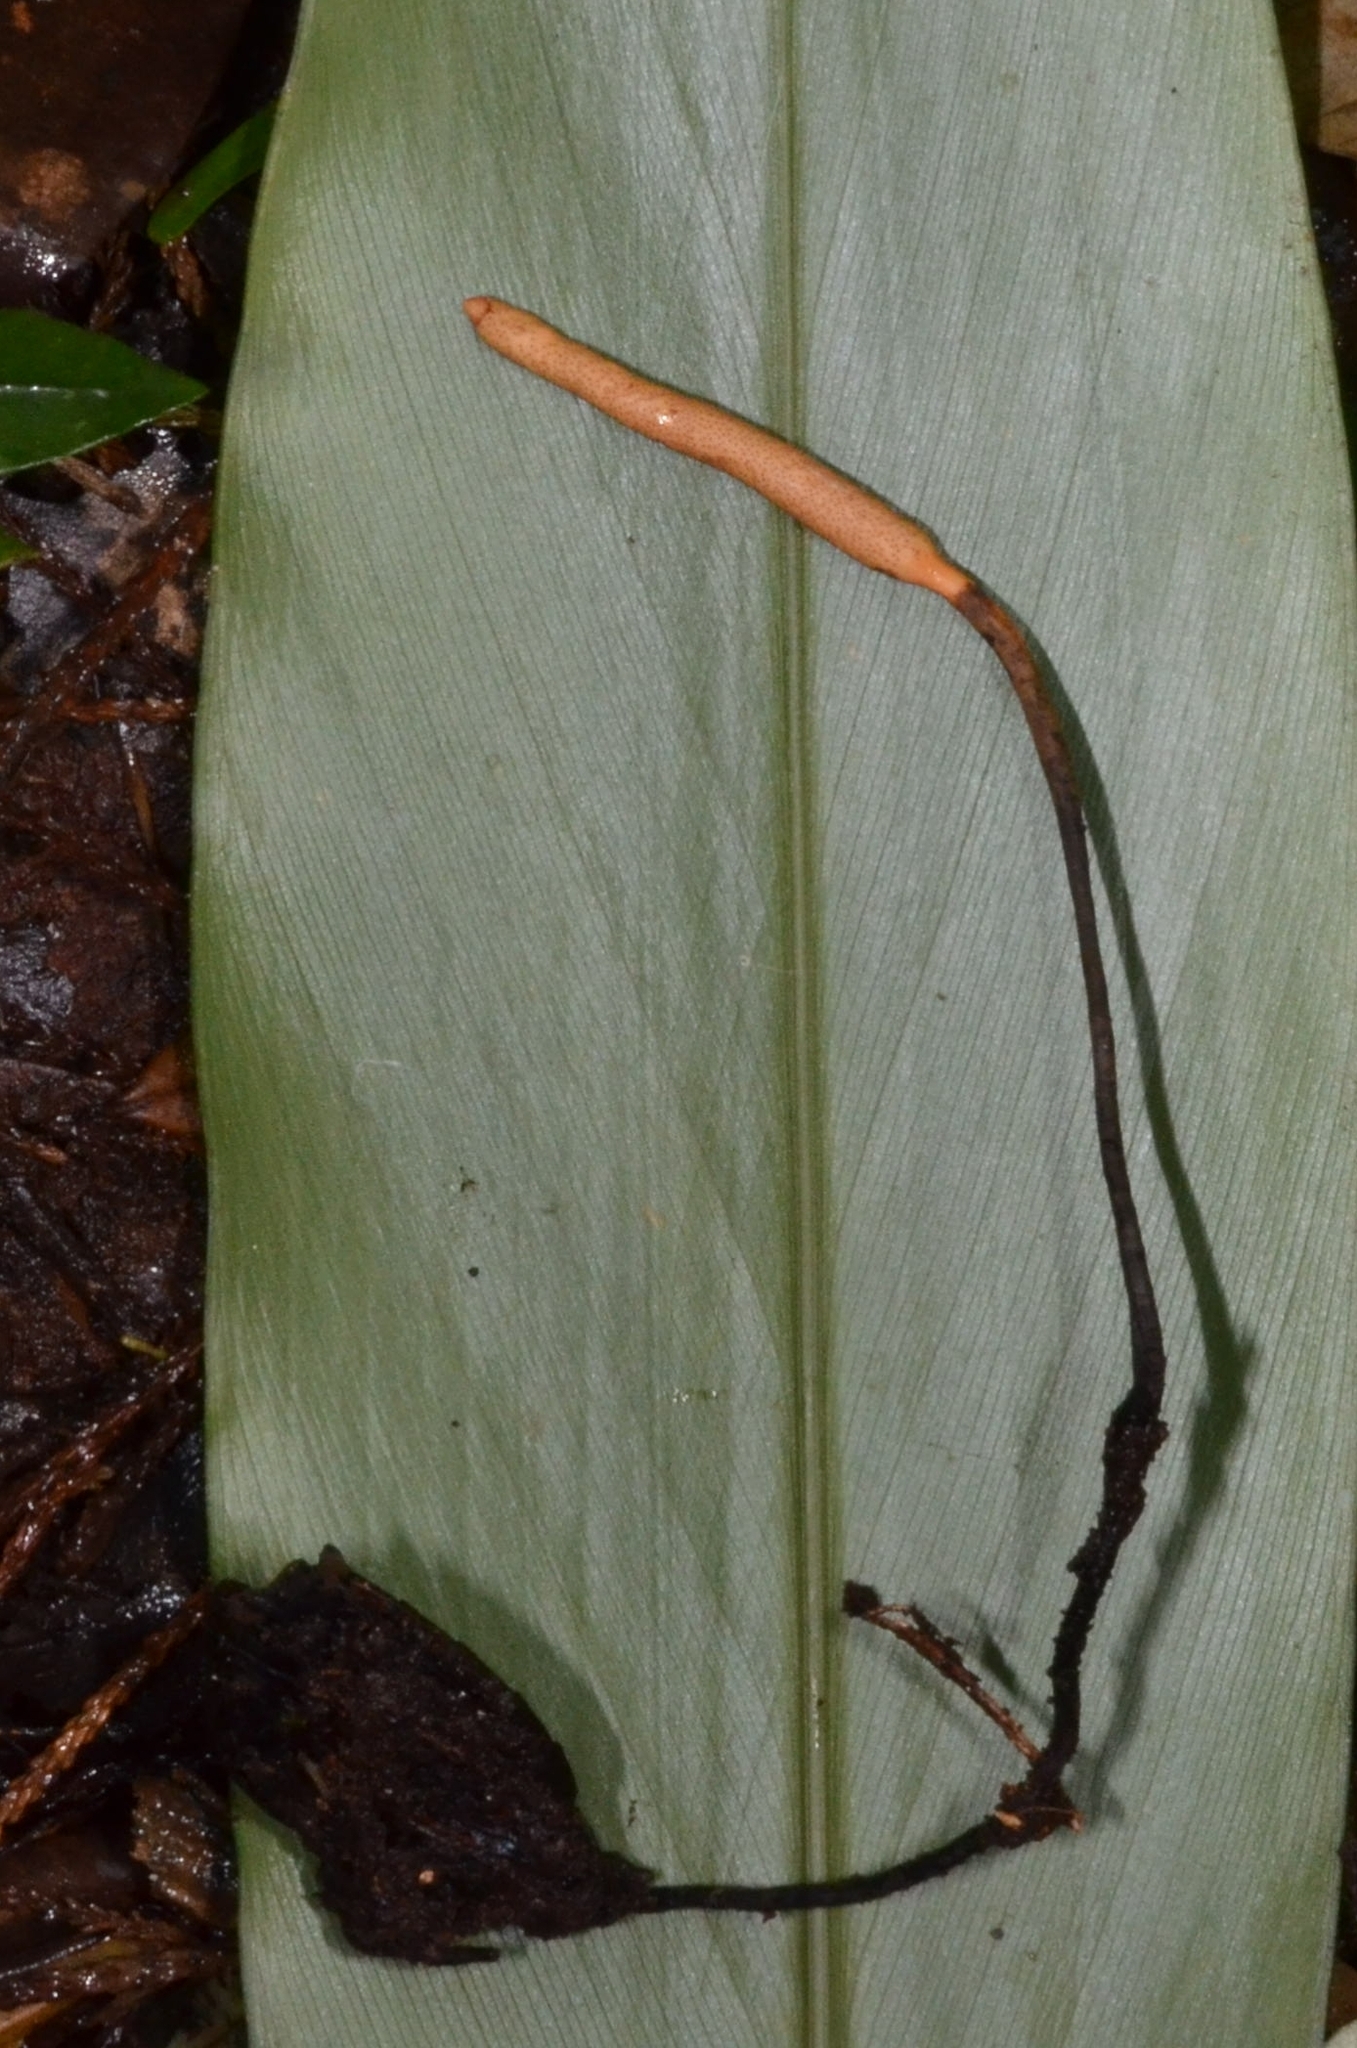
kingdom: Fungi
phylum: Ascomycota
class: Sordariomycetes
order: Hypocreales
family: Ophiocordycipitaceae
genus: Ophiocordyceps
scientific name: Ophiocordyceps nutans
